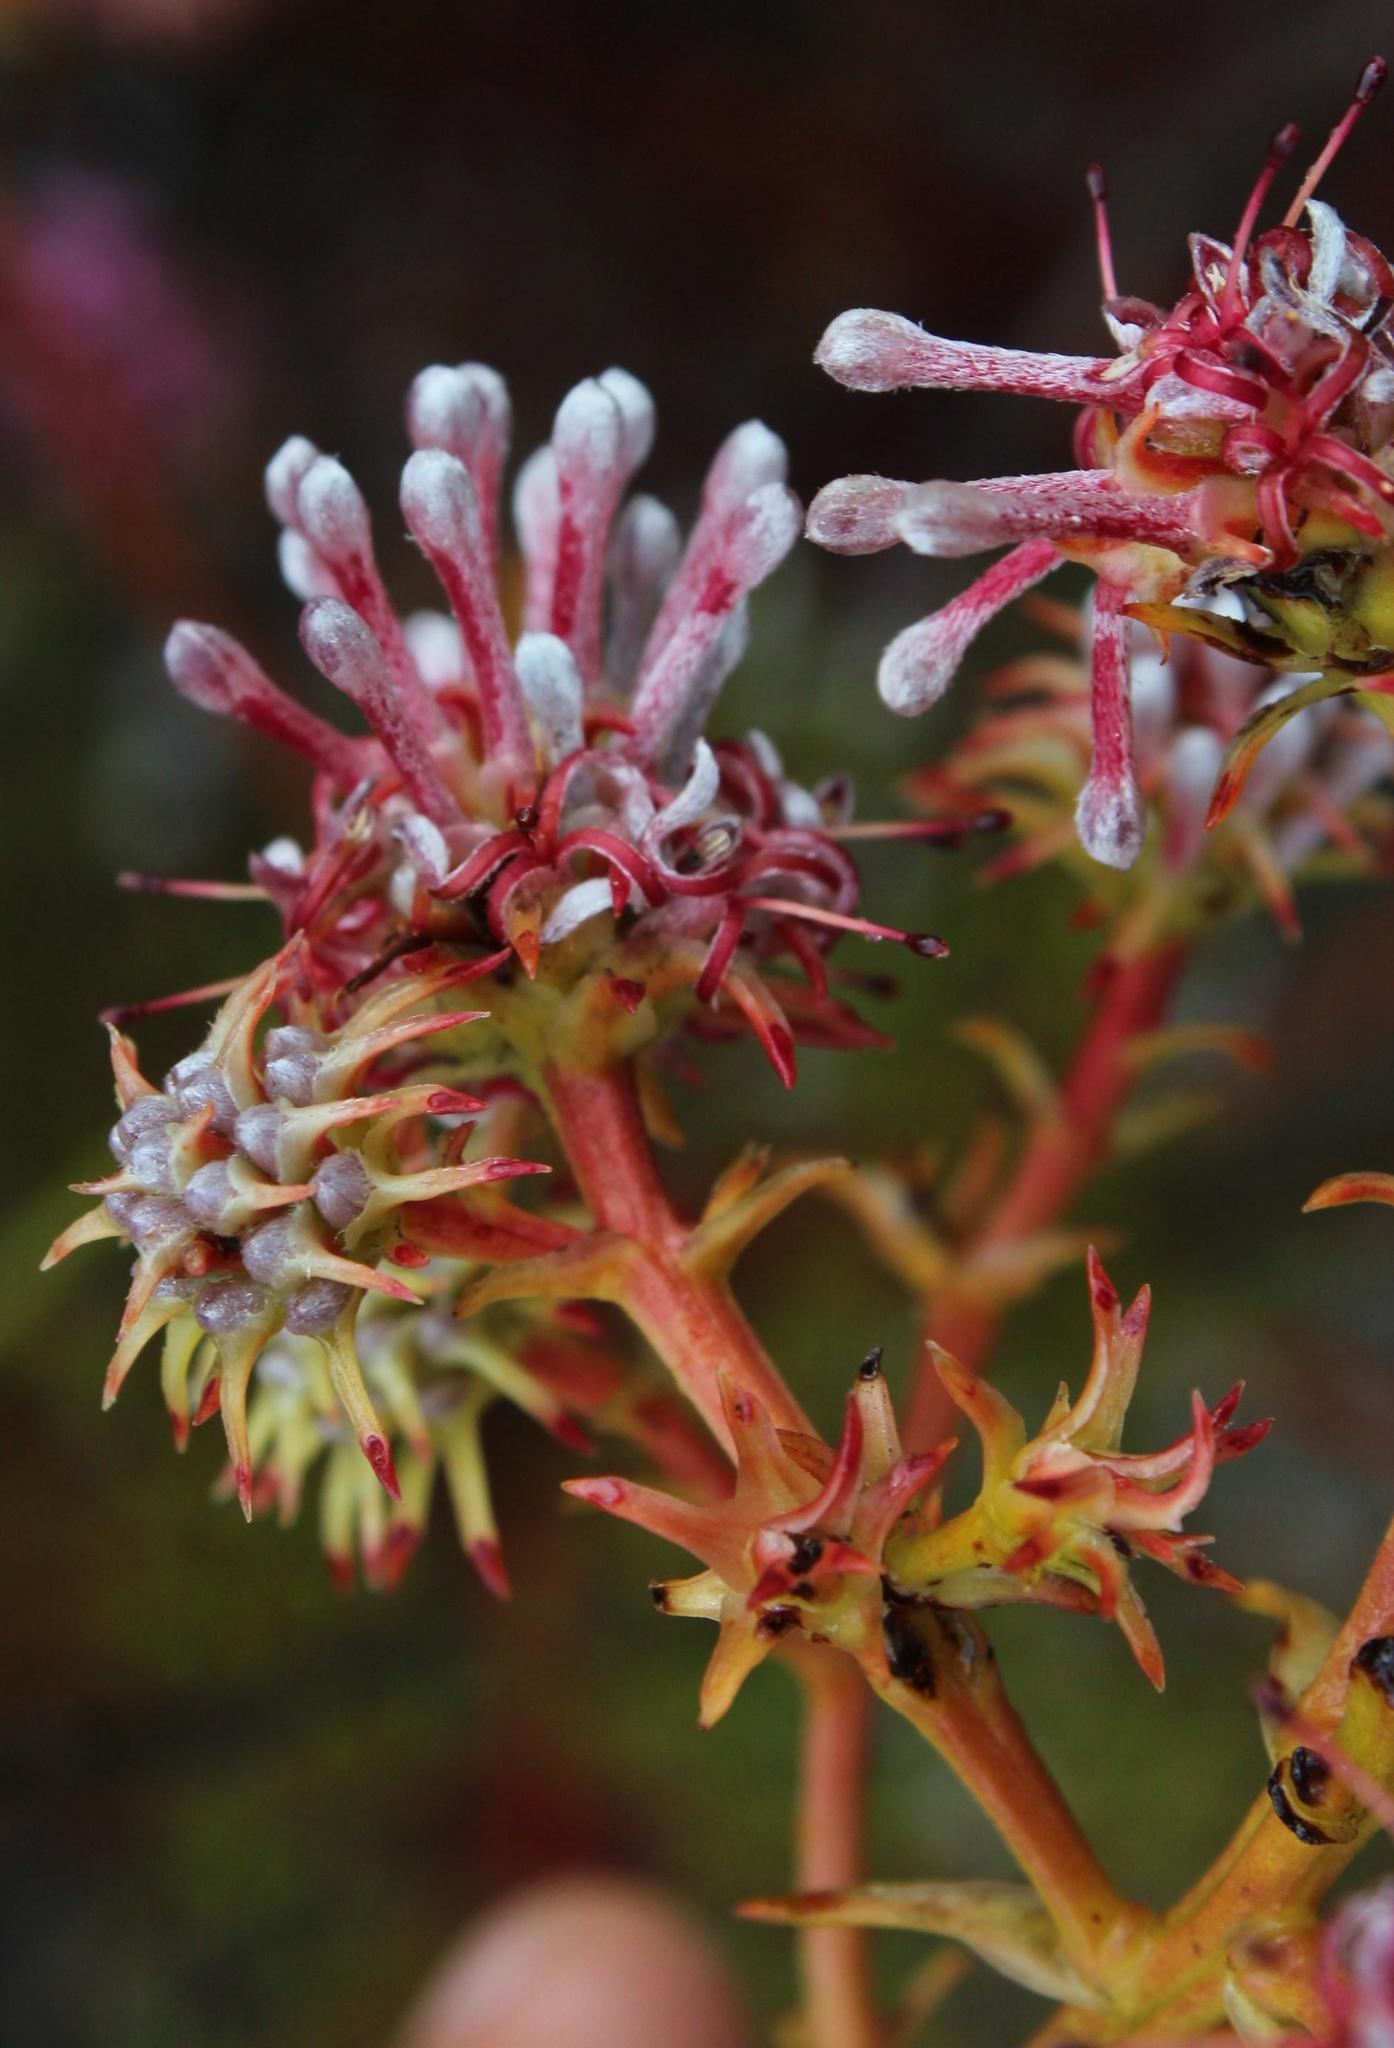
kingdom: Plantae
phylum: Tracheophyta
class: Magnoliopsida
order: Proteales
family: Proteaceae
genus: Serruria
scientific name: Serruria elongata
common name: Long-stalk spiderhead
